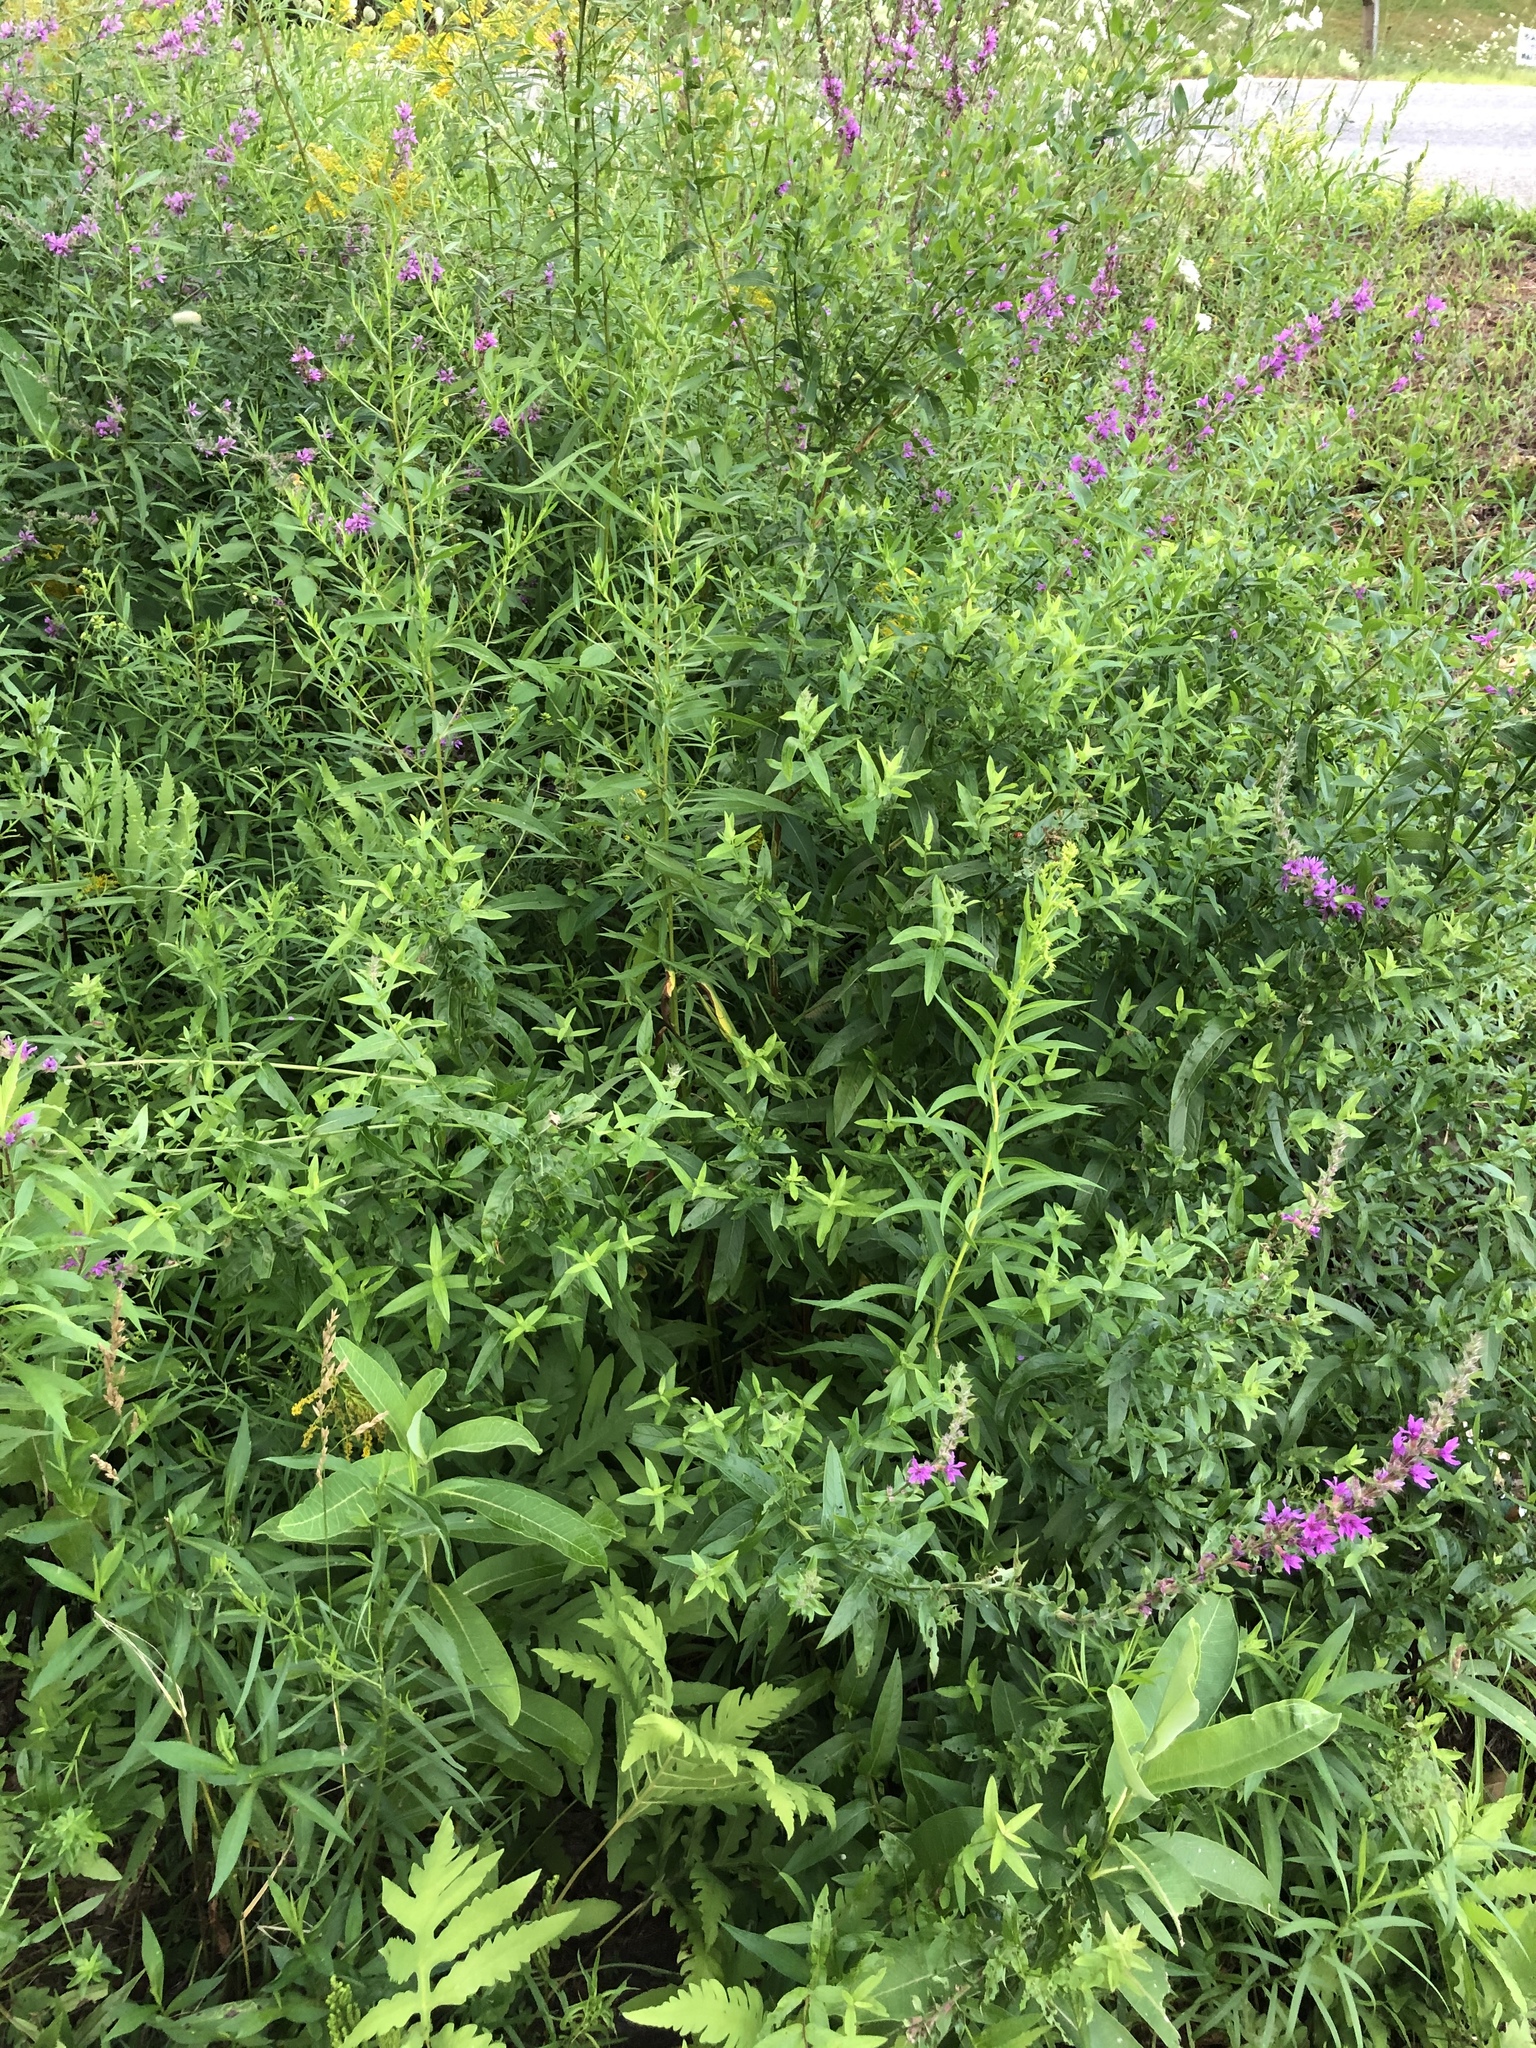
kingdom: Plantae
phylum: Tracheophyta
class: Magnoliopsida
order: Myrtales
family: Lythraceae
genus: Lythrum
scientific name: Lythrum salicaria
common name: Purple loosestrife
